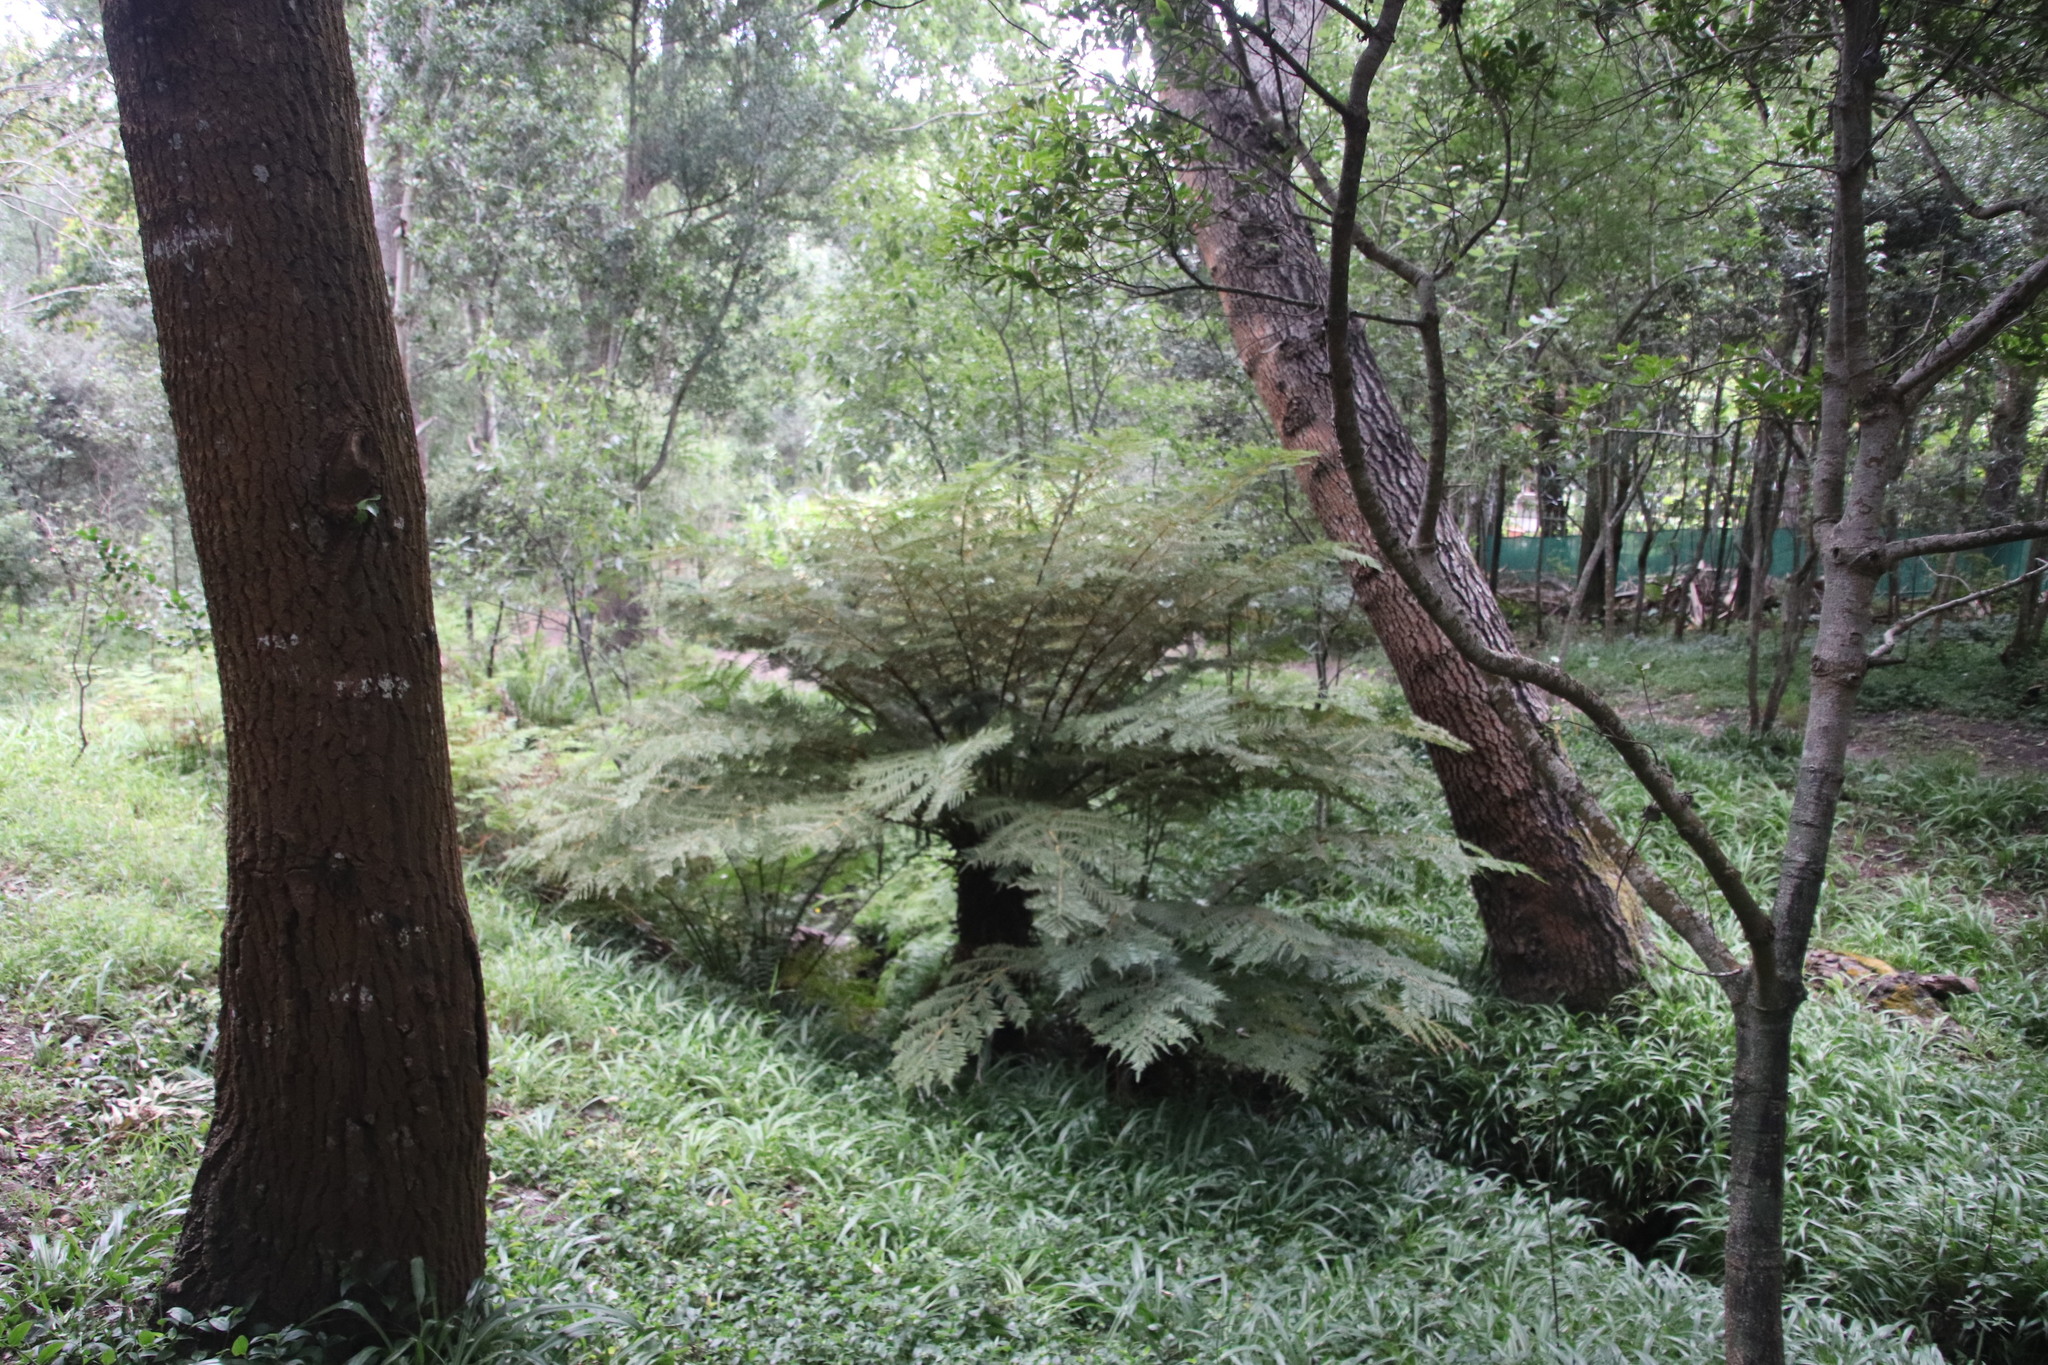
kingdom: Plantae
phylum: Tracheophyta
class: Polypodiopsida
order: Cyatheales
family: Cyatheaceae
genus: Alsophila
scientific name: Alsophila dregei
